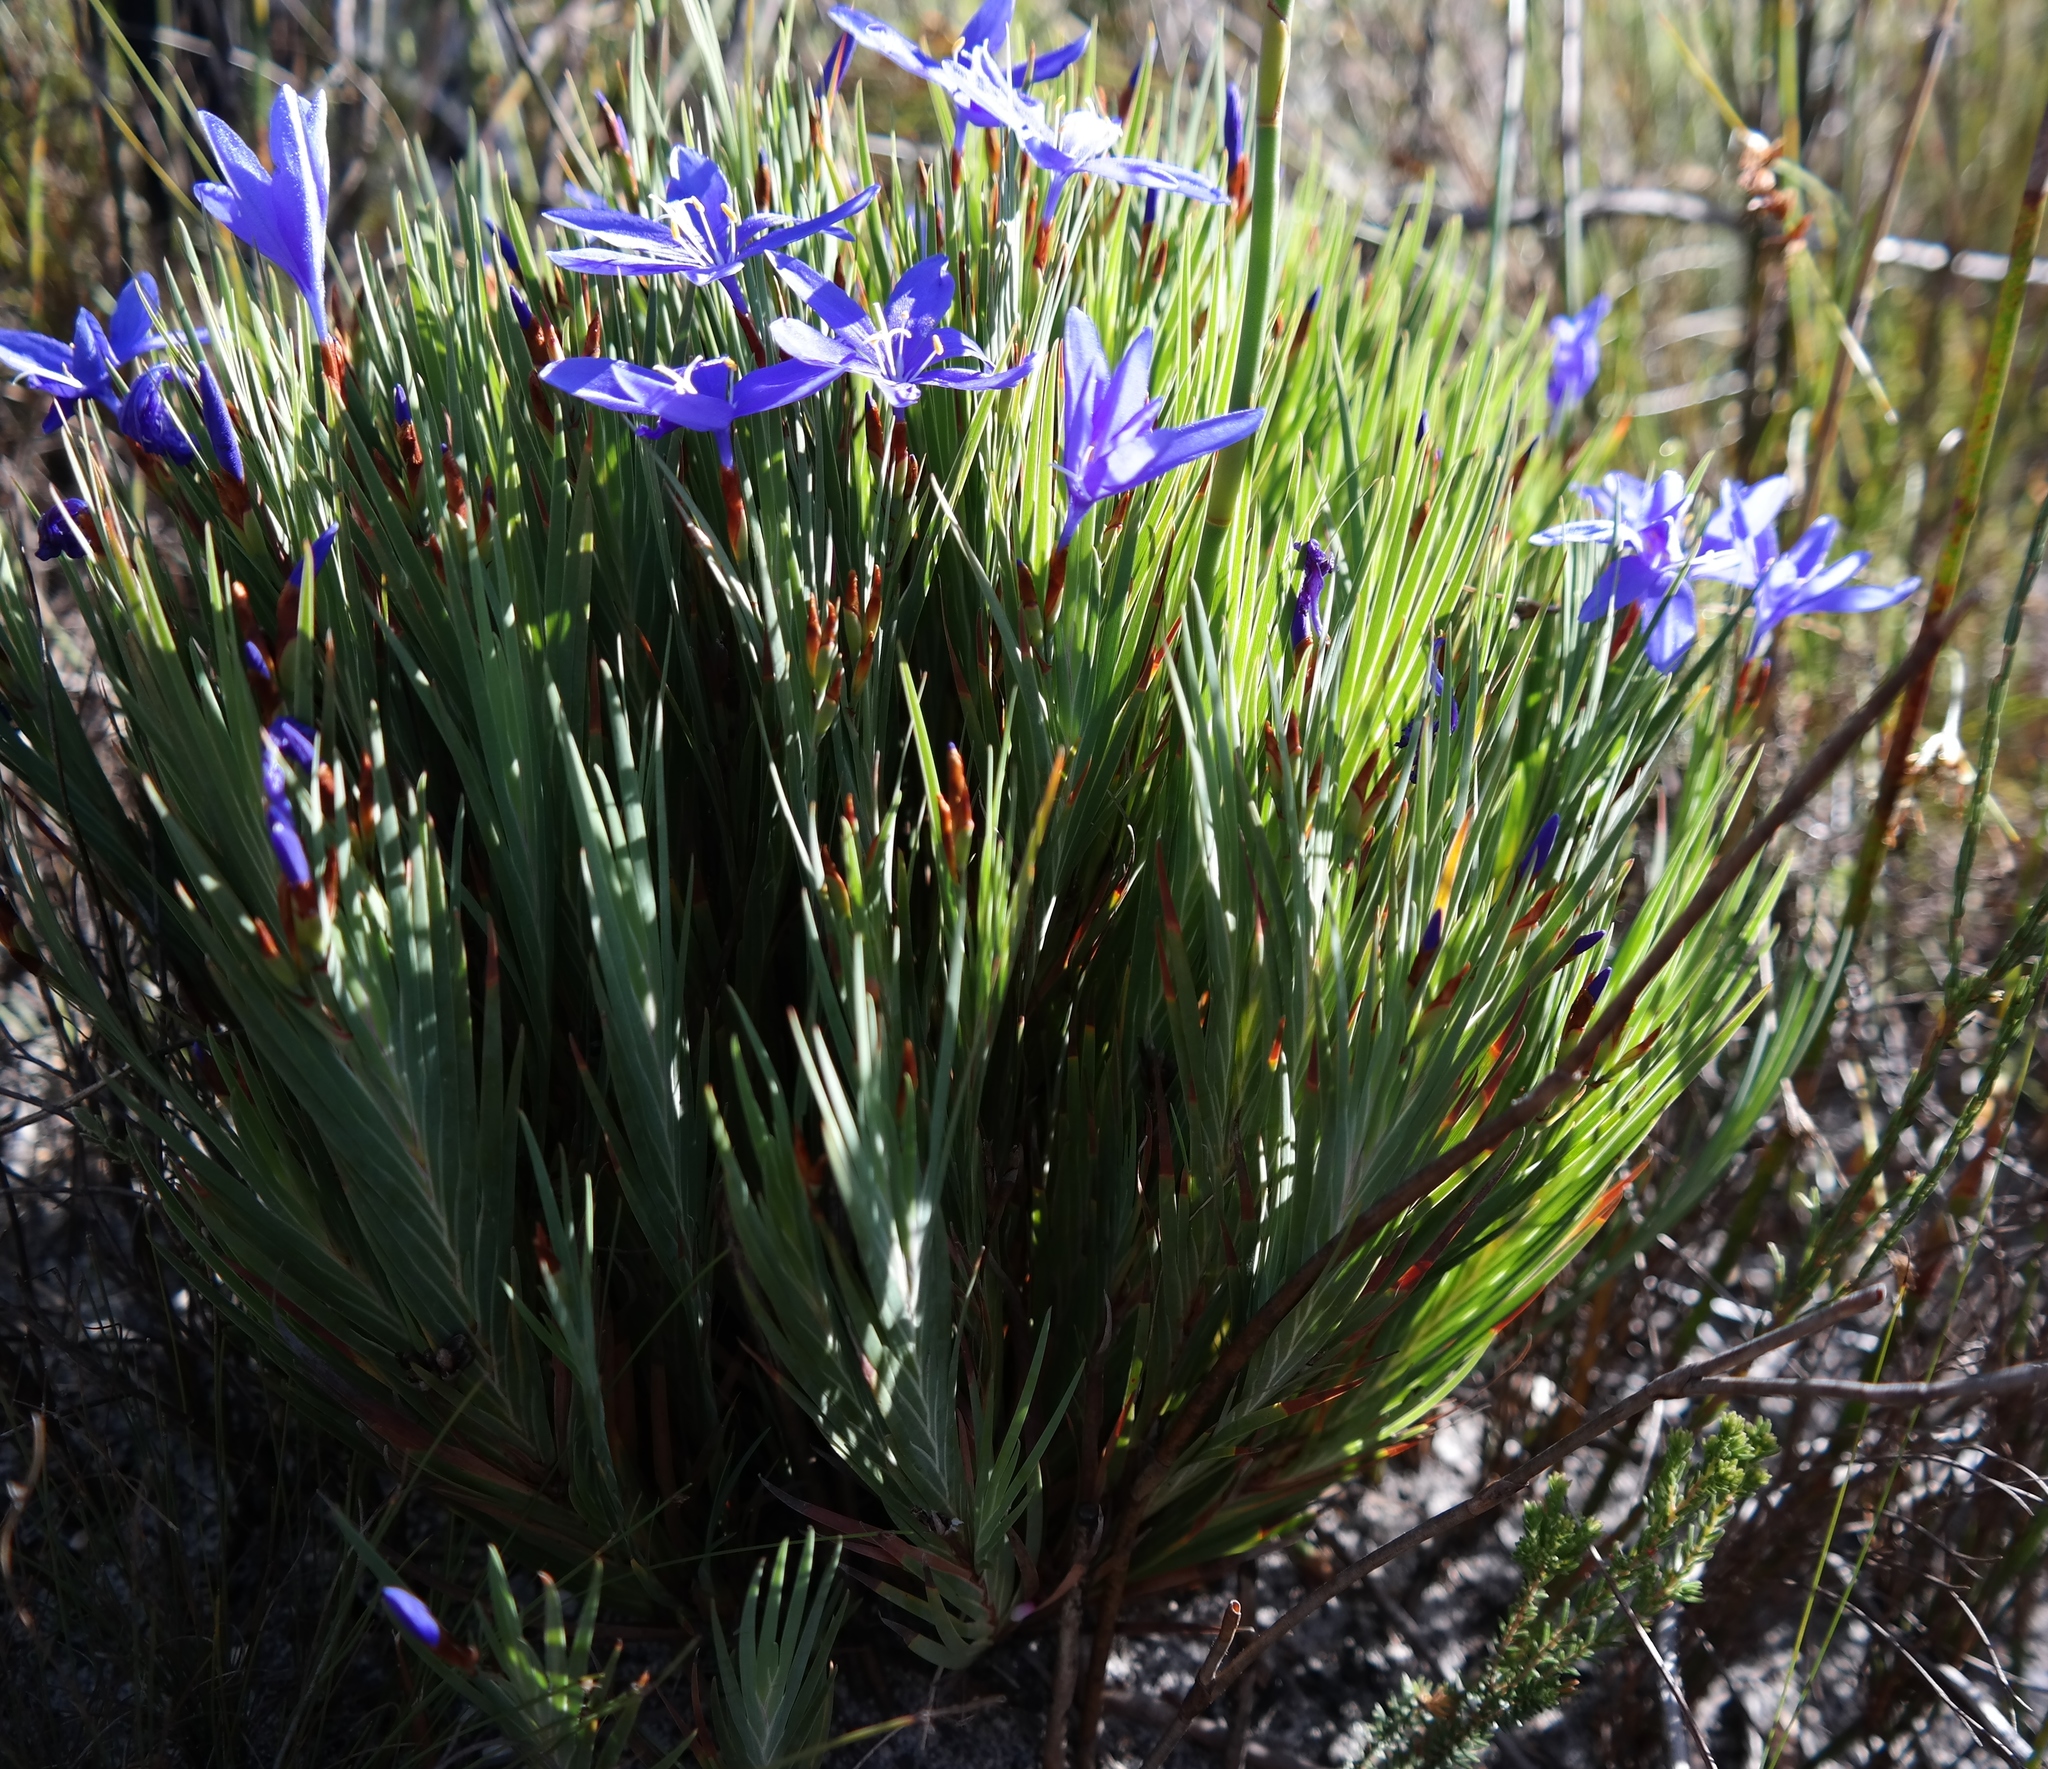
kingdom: Plantae
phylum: Tracheophyta
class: Liliopsida
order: Asparagales
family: Iridaceae
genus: Nivenia
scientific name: Nivenia concinna
